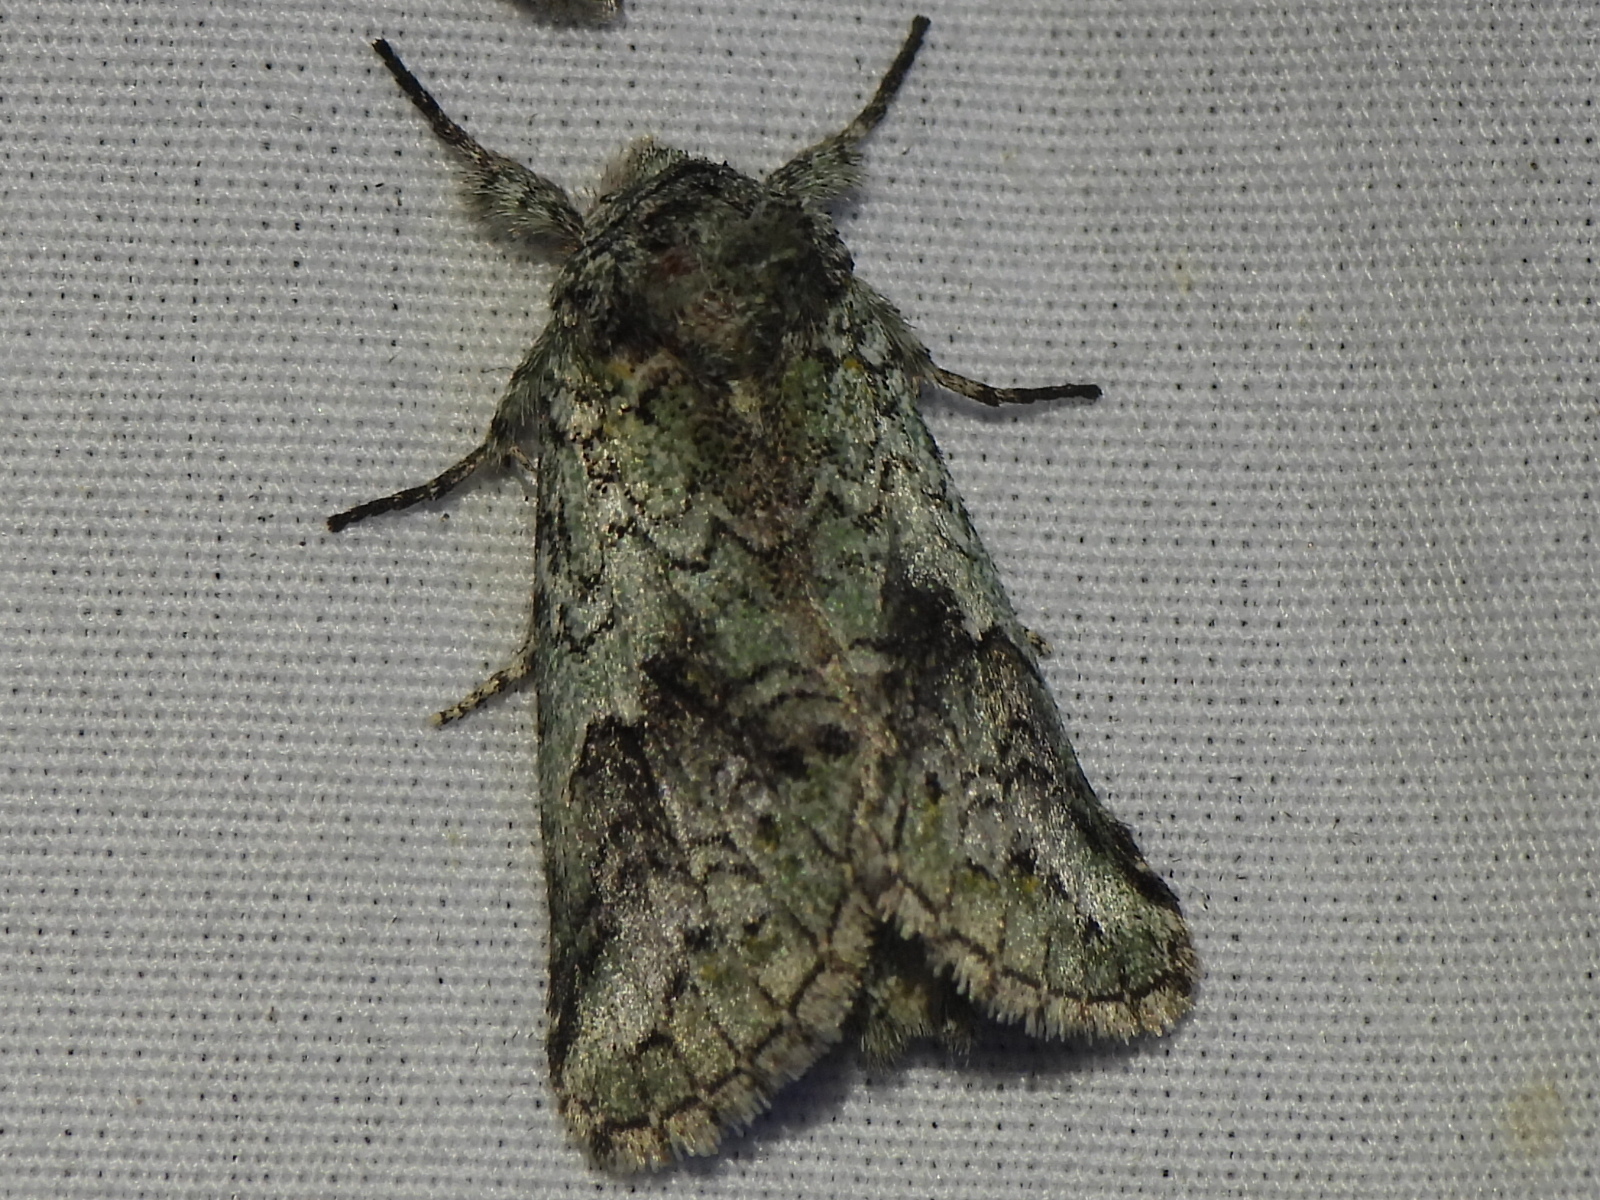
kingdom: Animalia
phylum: Arthropoda
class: Insecta
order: Lepidoptera
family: Notodontidae
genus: Litodonta
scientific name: Litodonta hydromeli
